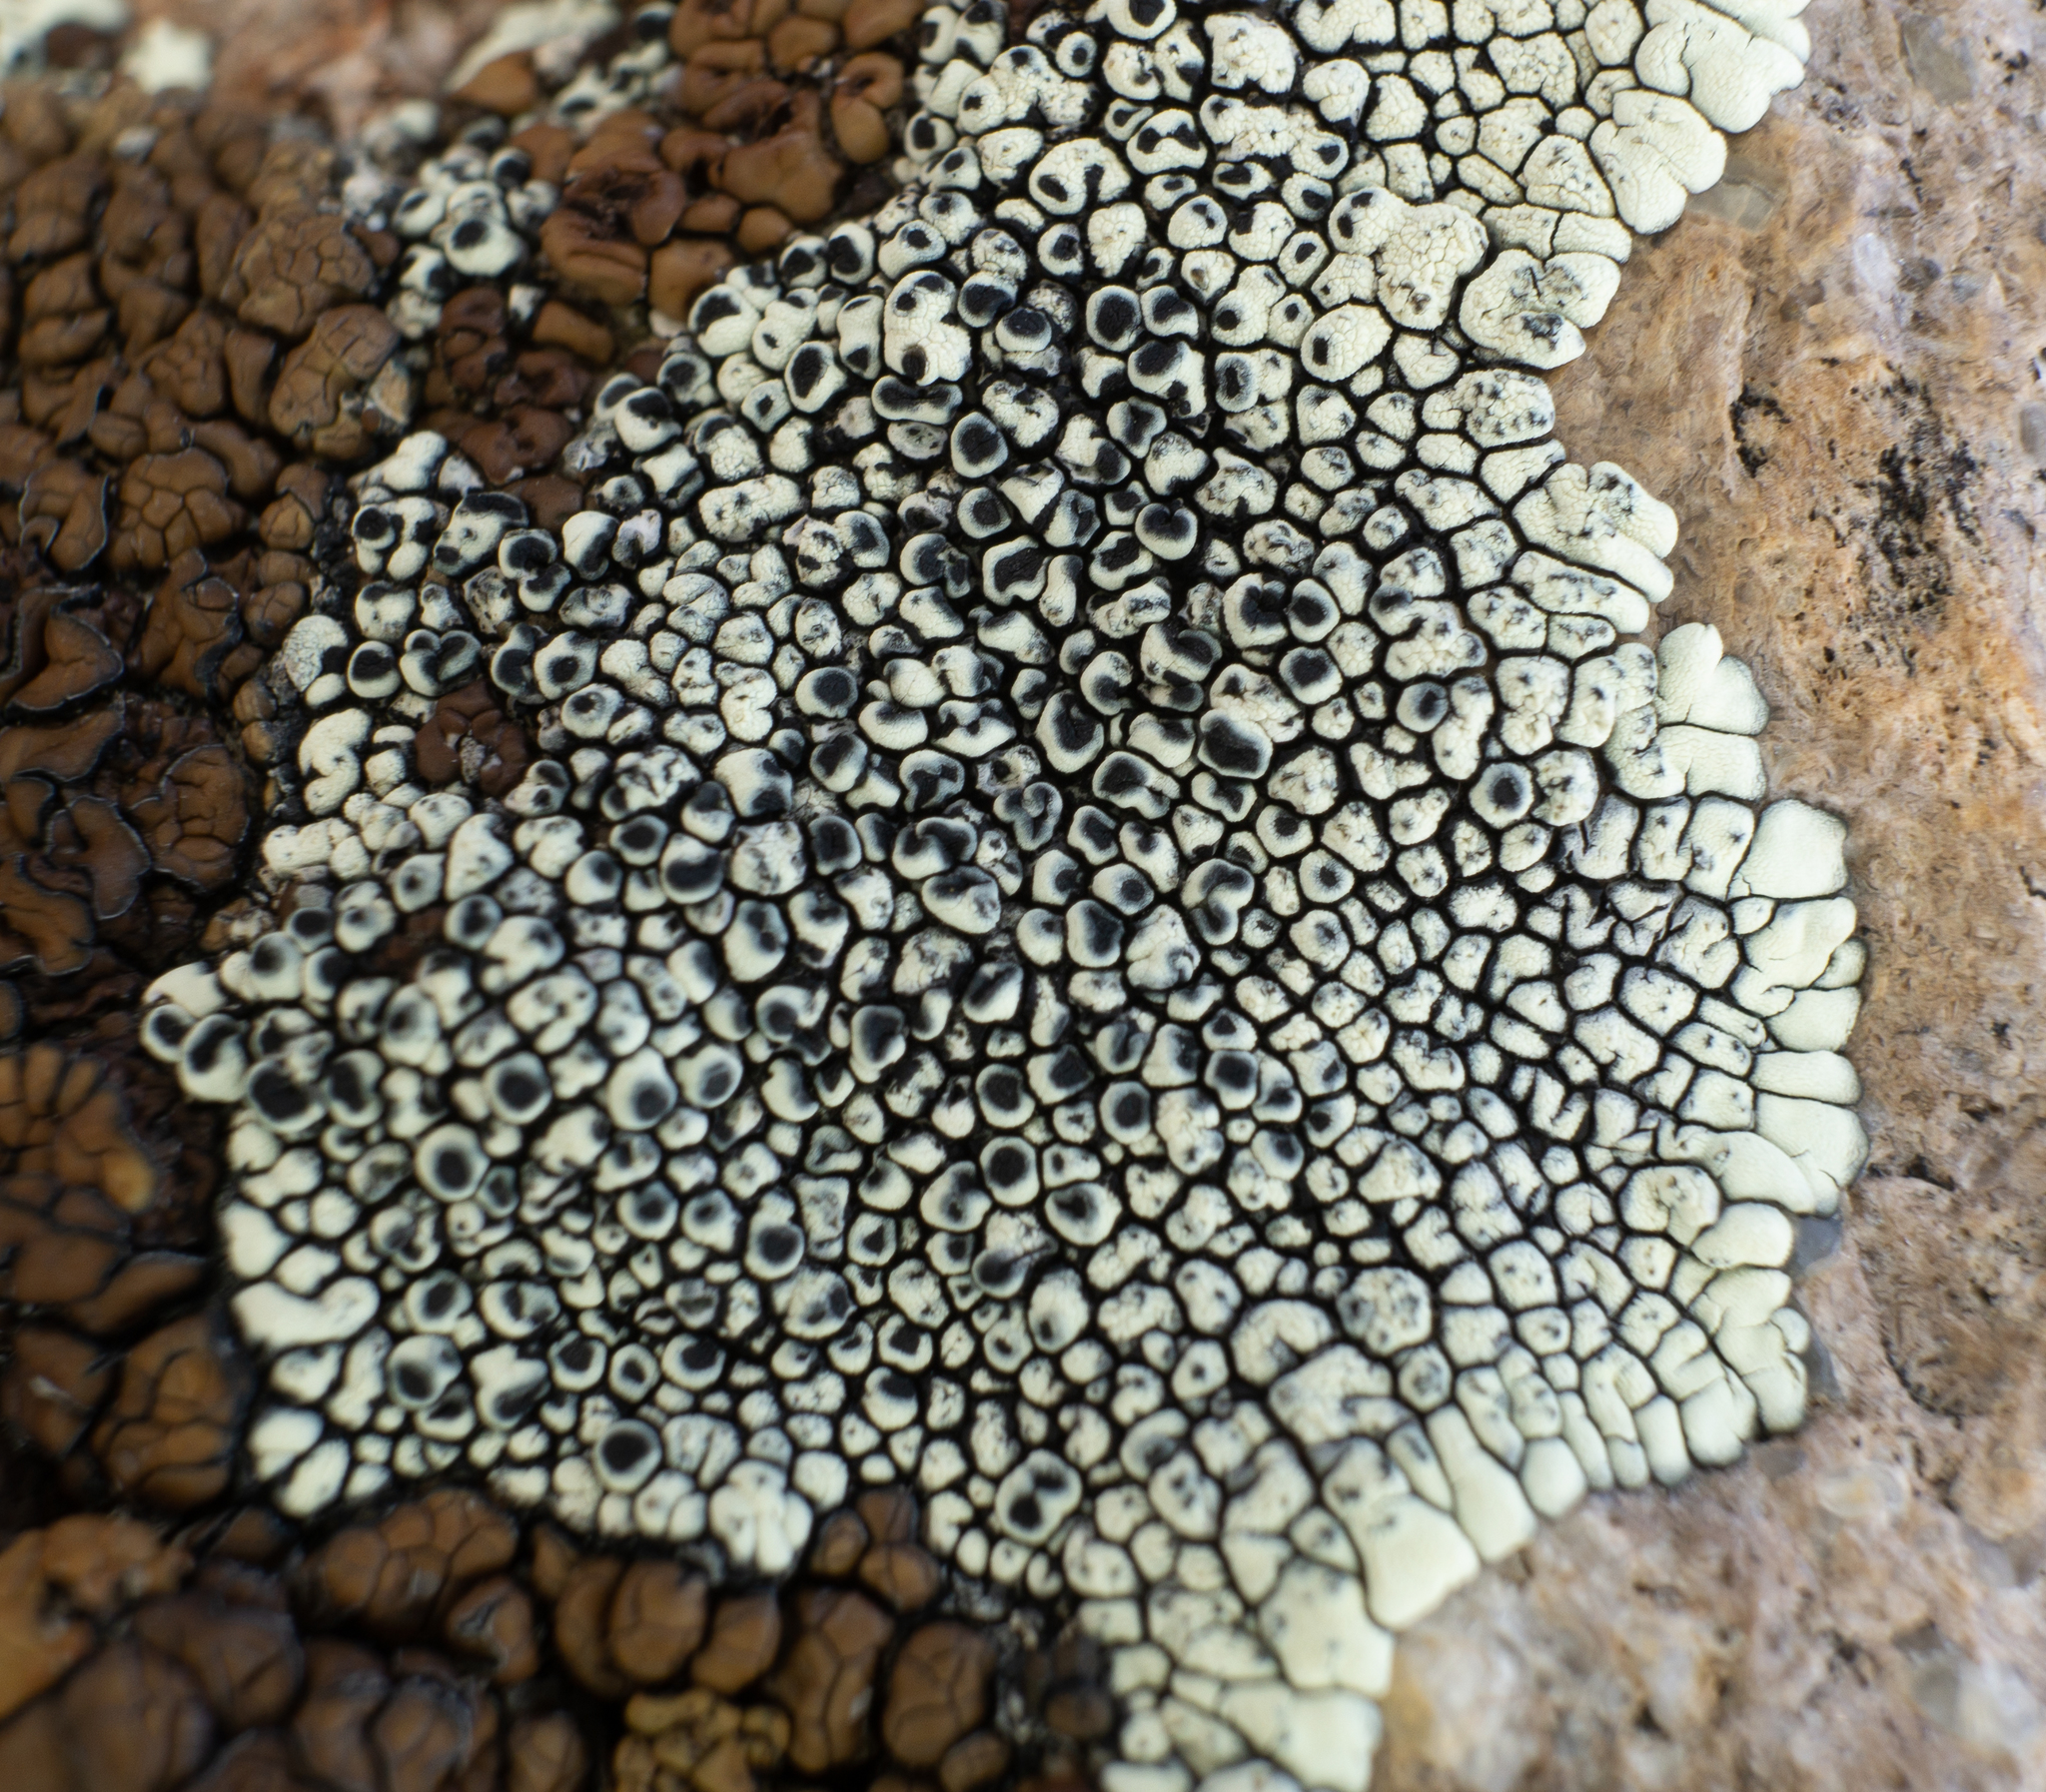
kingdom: Fungi
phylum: Ascomycota
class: Lecanoromycetes
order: Caliciales
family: Caliciaceae
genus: Dimelaena
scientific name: Dimelaena oreina
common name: Golden moonglow lichen
